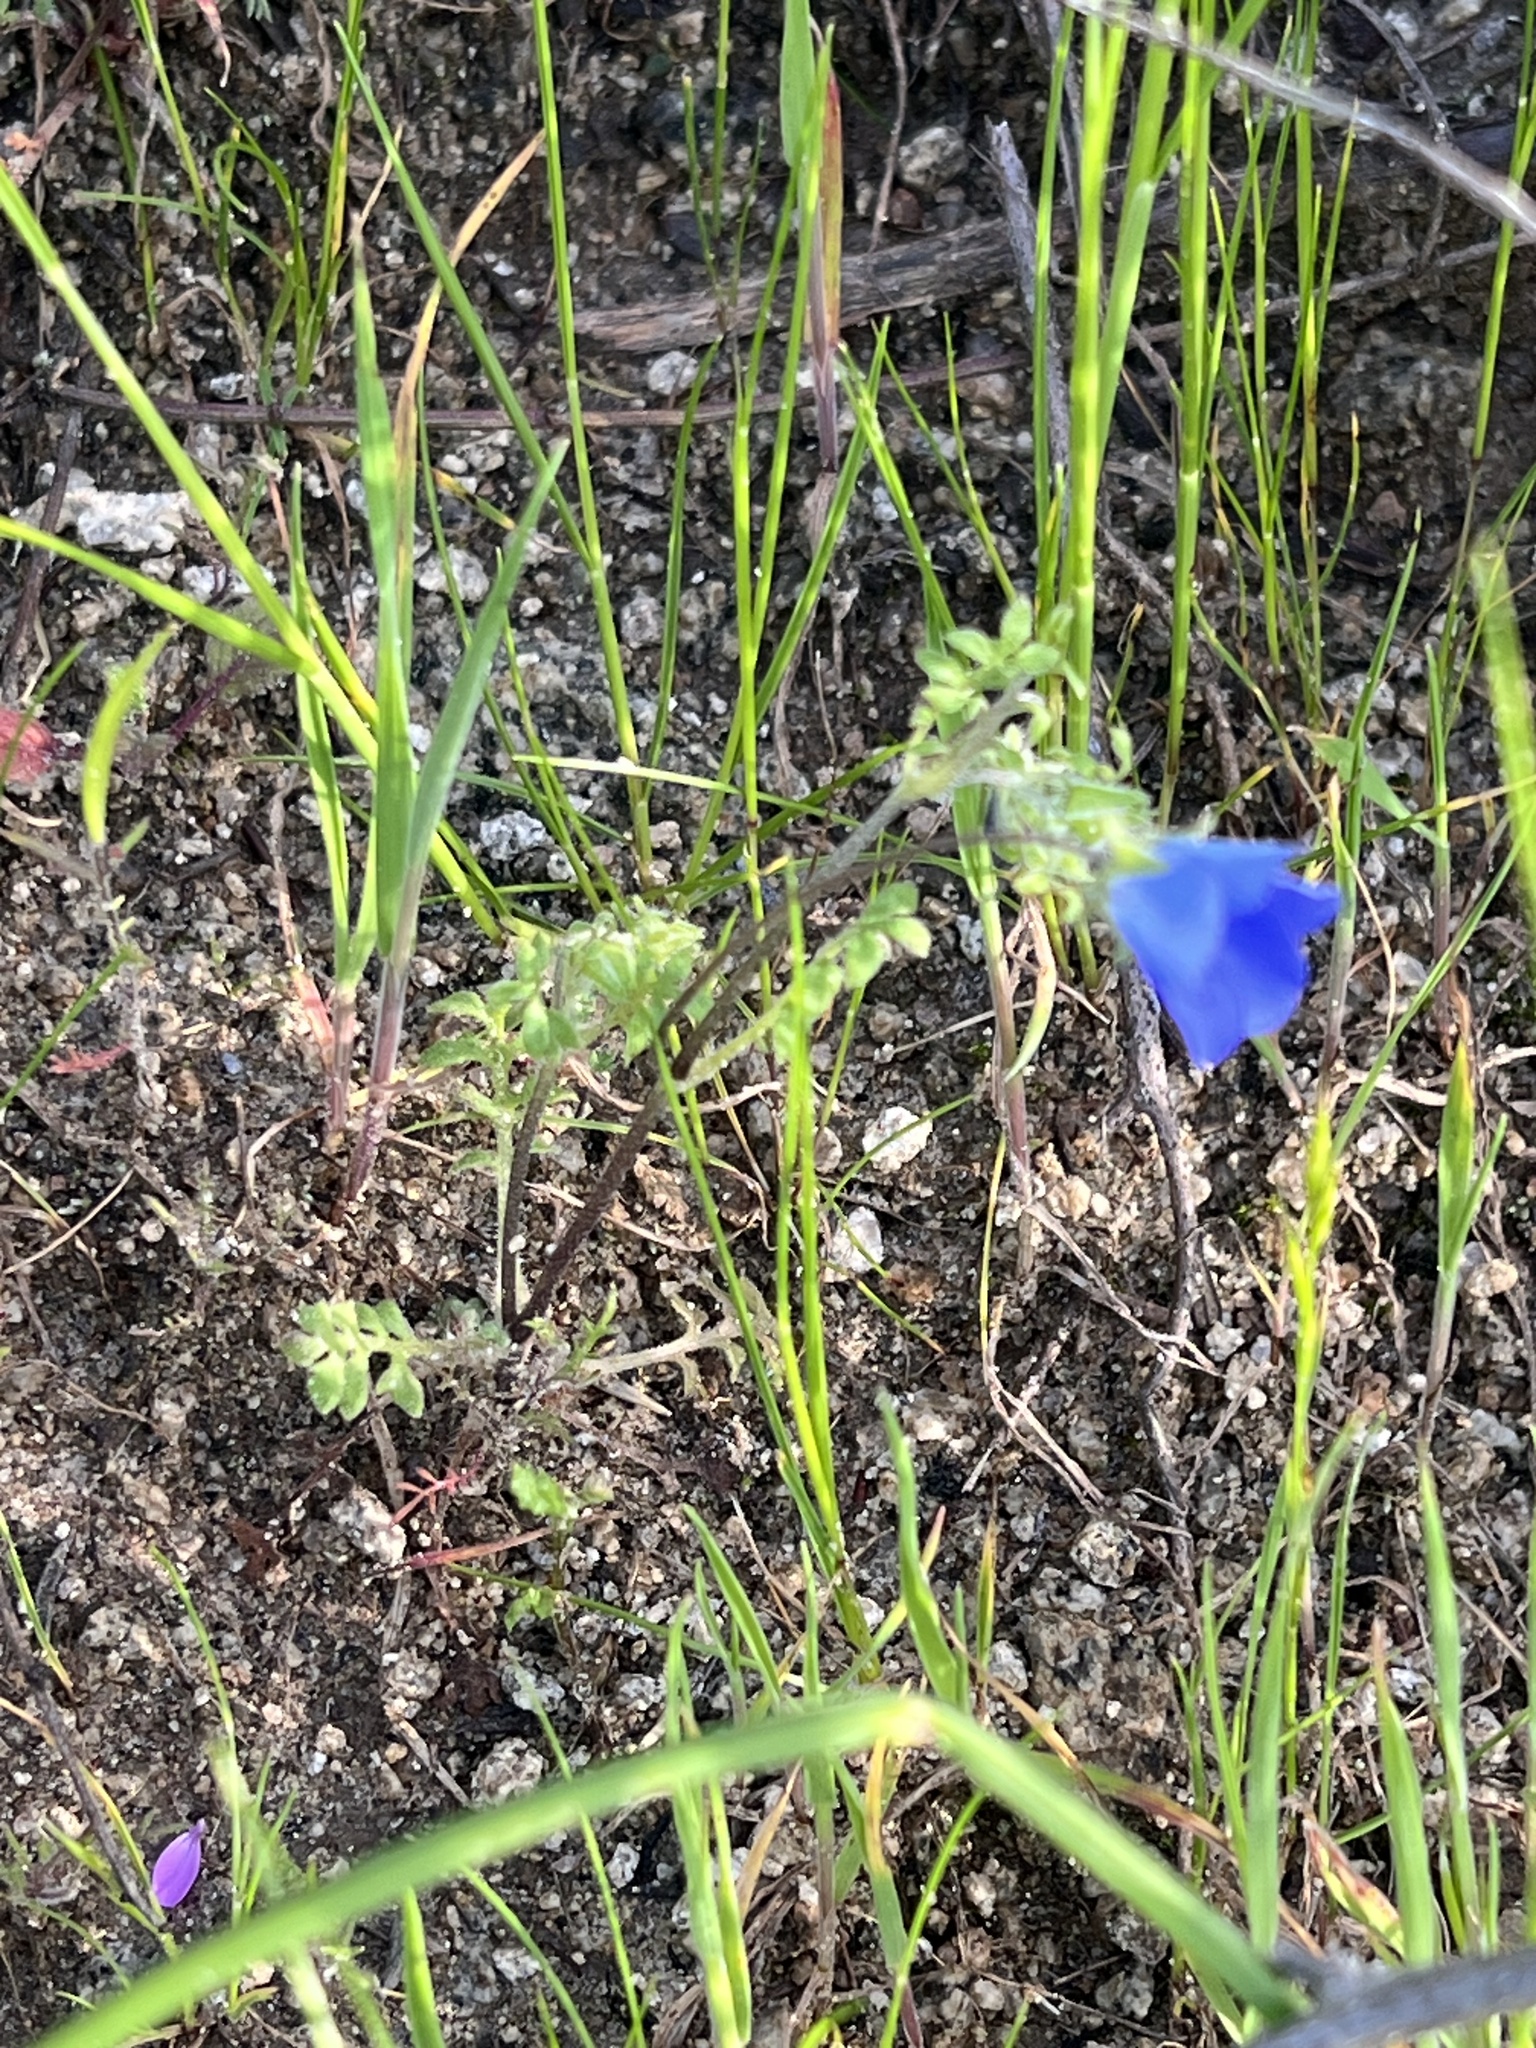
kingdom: Plantae
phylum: Tracheophyta
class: Magnoliopsida
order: Boraginales
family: Hydrophyllaceae
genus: Nemophila
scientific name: Nemophila menziesii
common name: Baby's-blue-eyes
